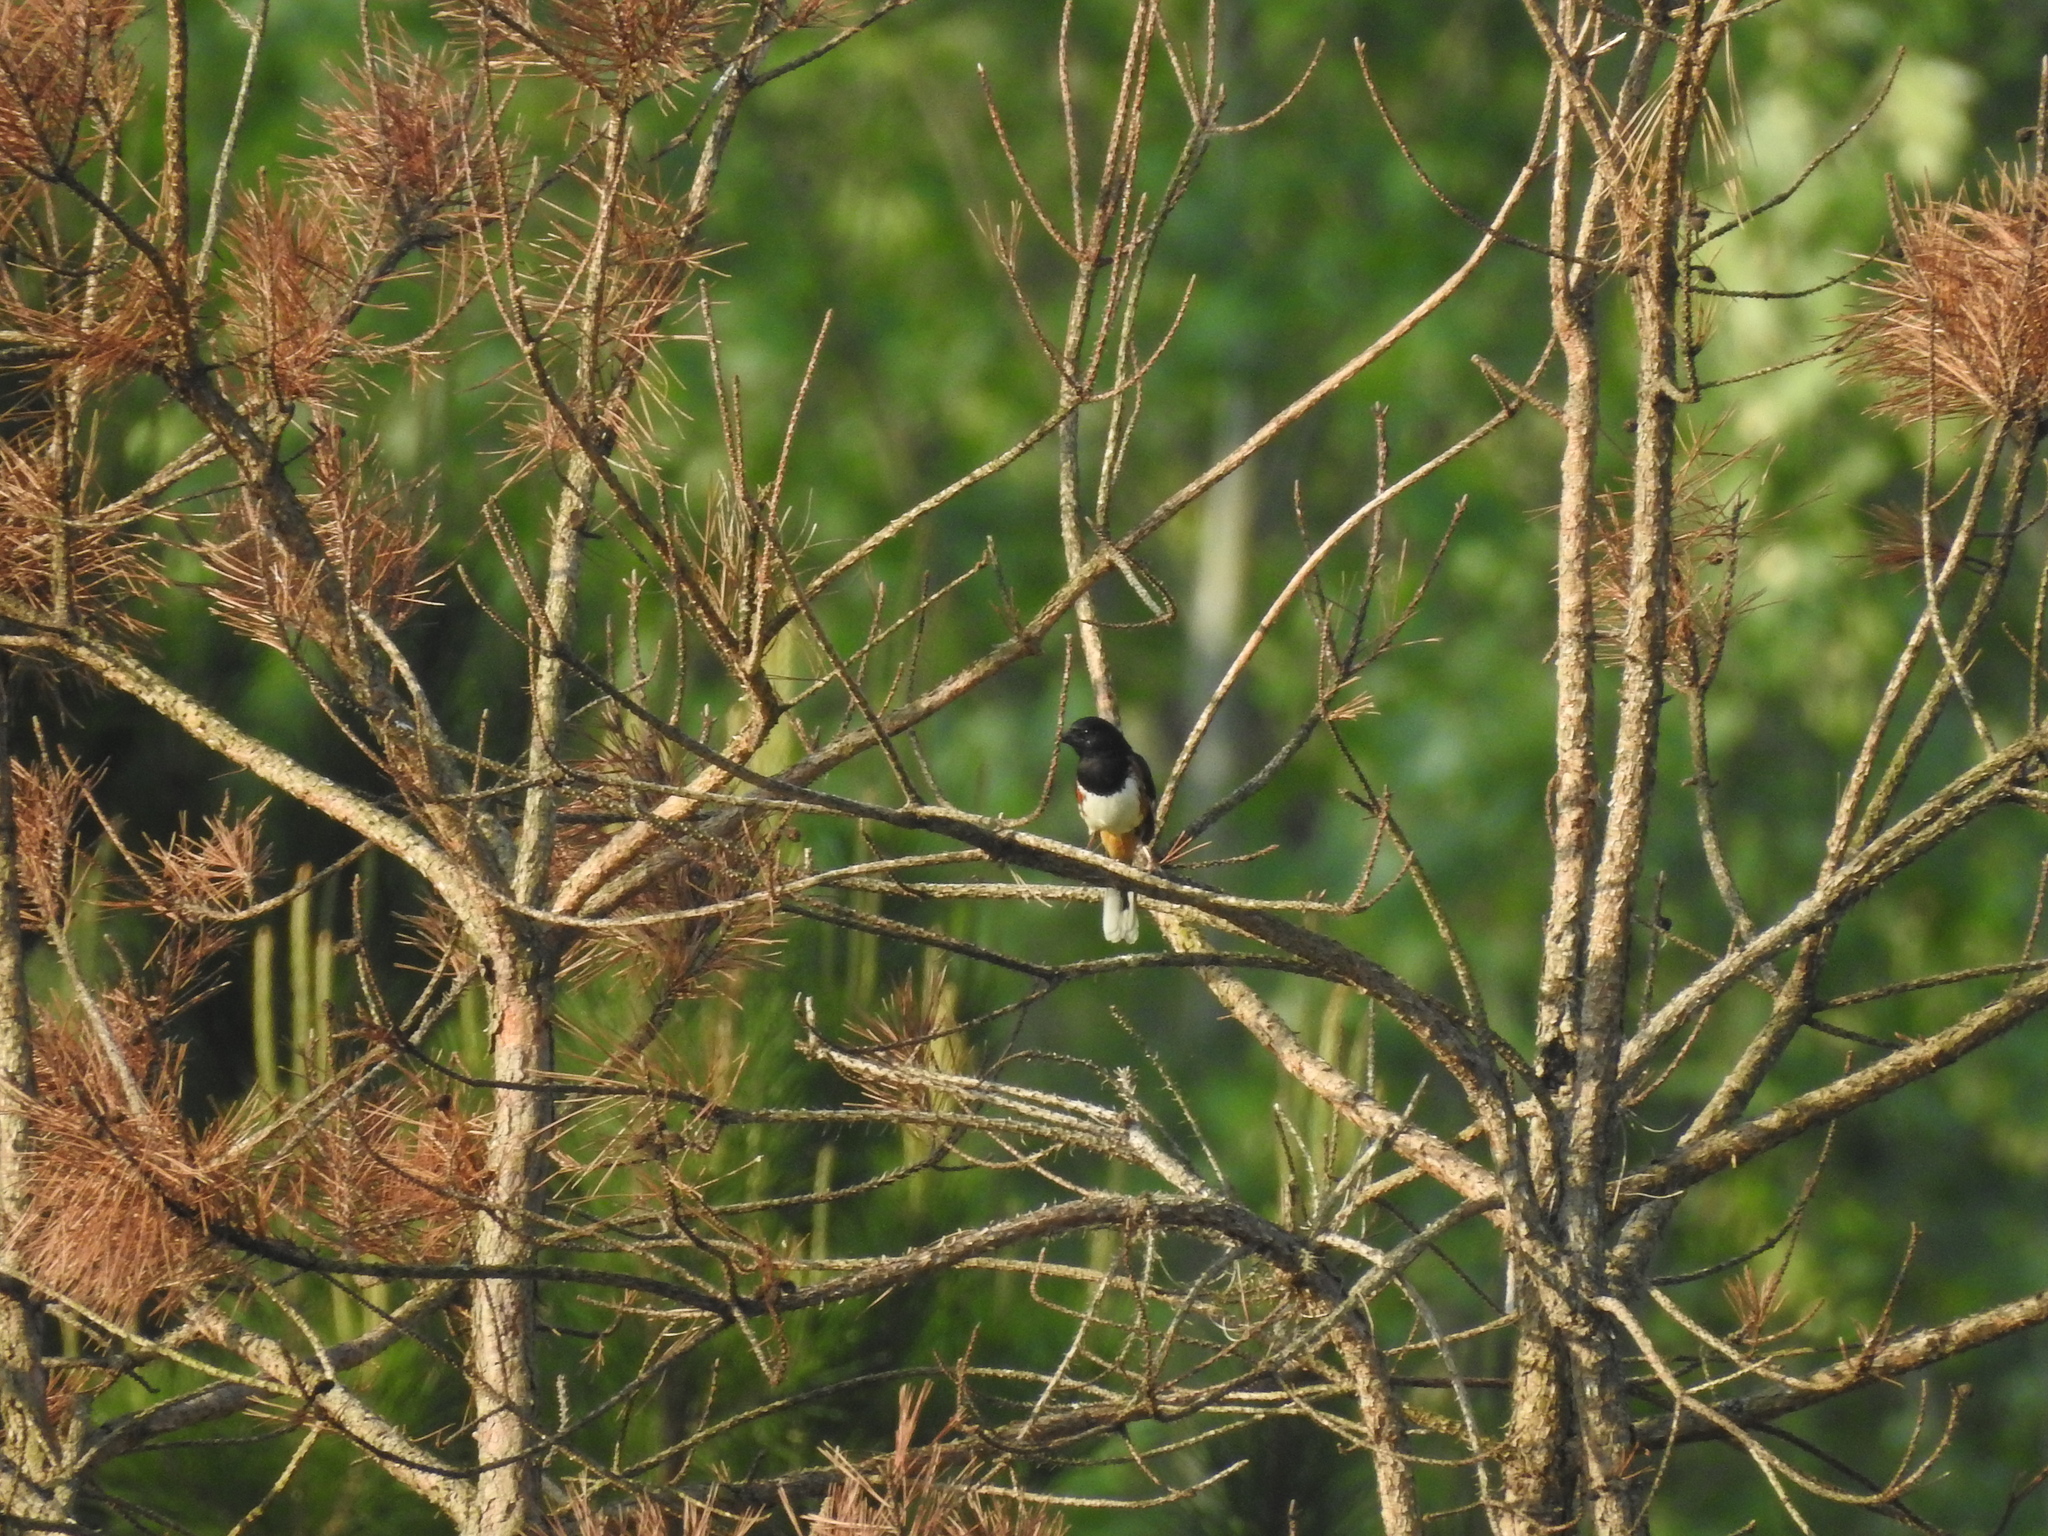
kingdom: Animalia
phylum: Chordata
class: Aves
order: Passeriformes
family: Passerellidae
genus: Pipilo
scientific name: Pipilo erythrophthalmus
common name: Eastern towhee
